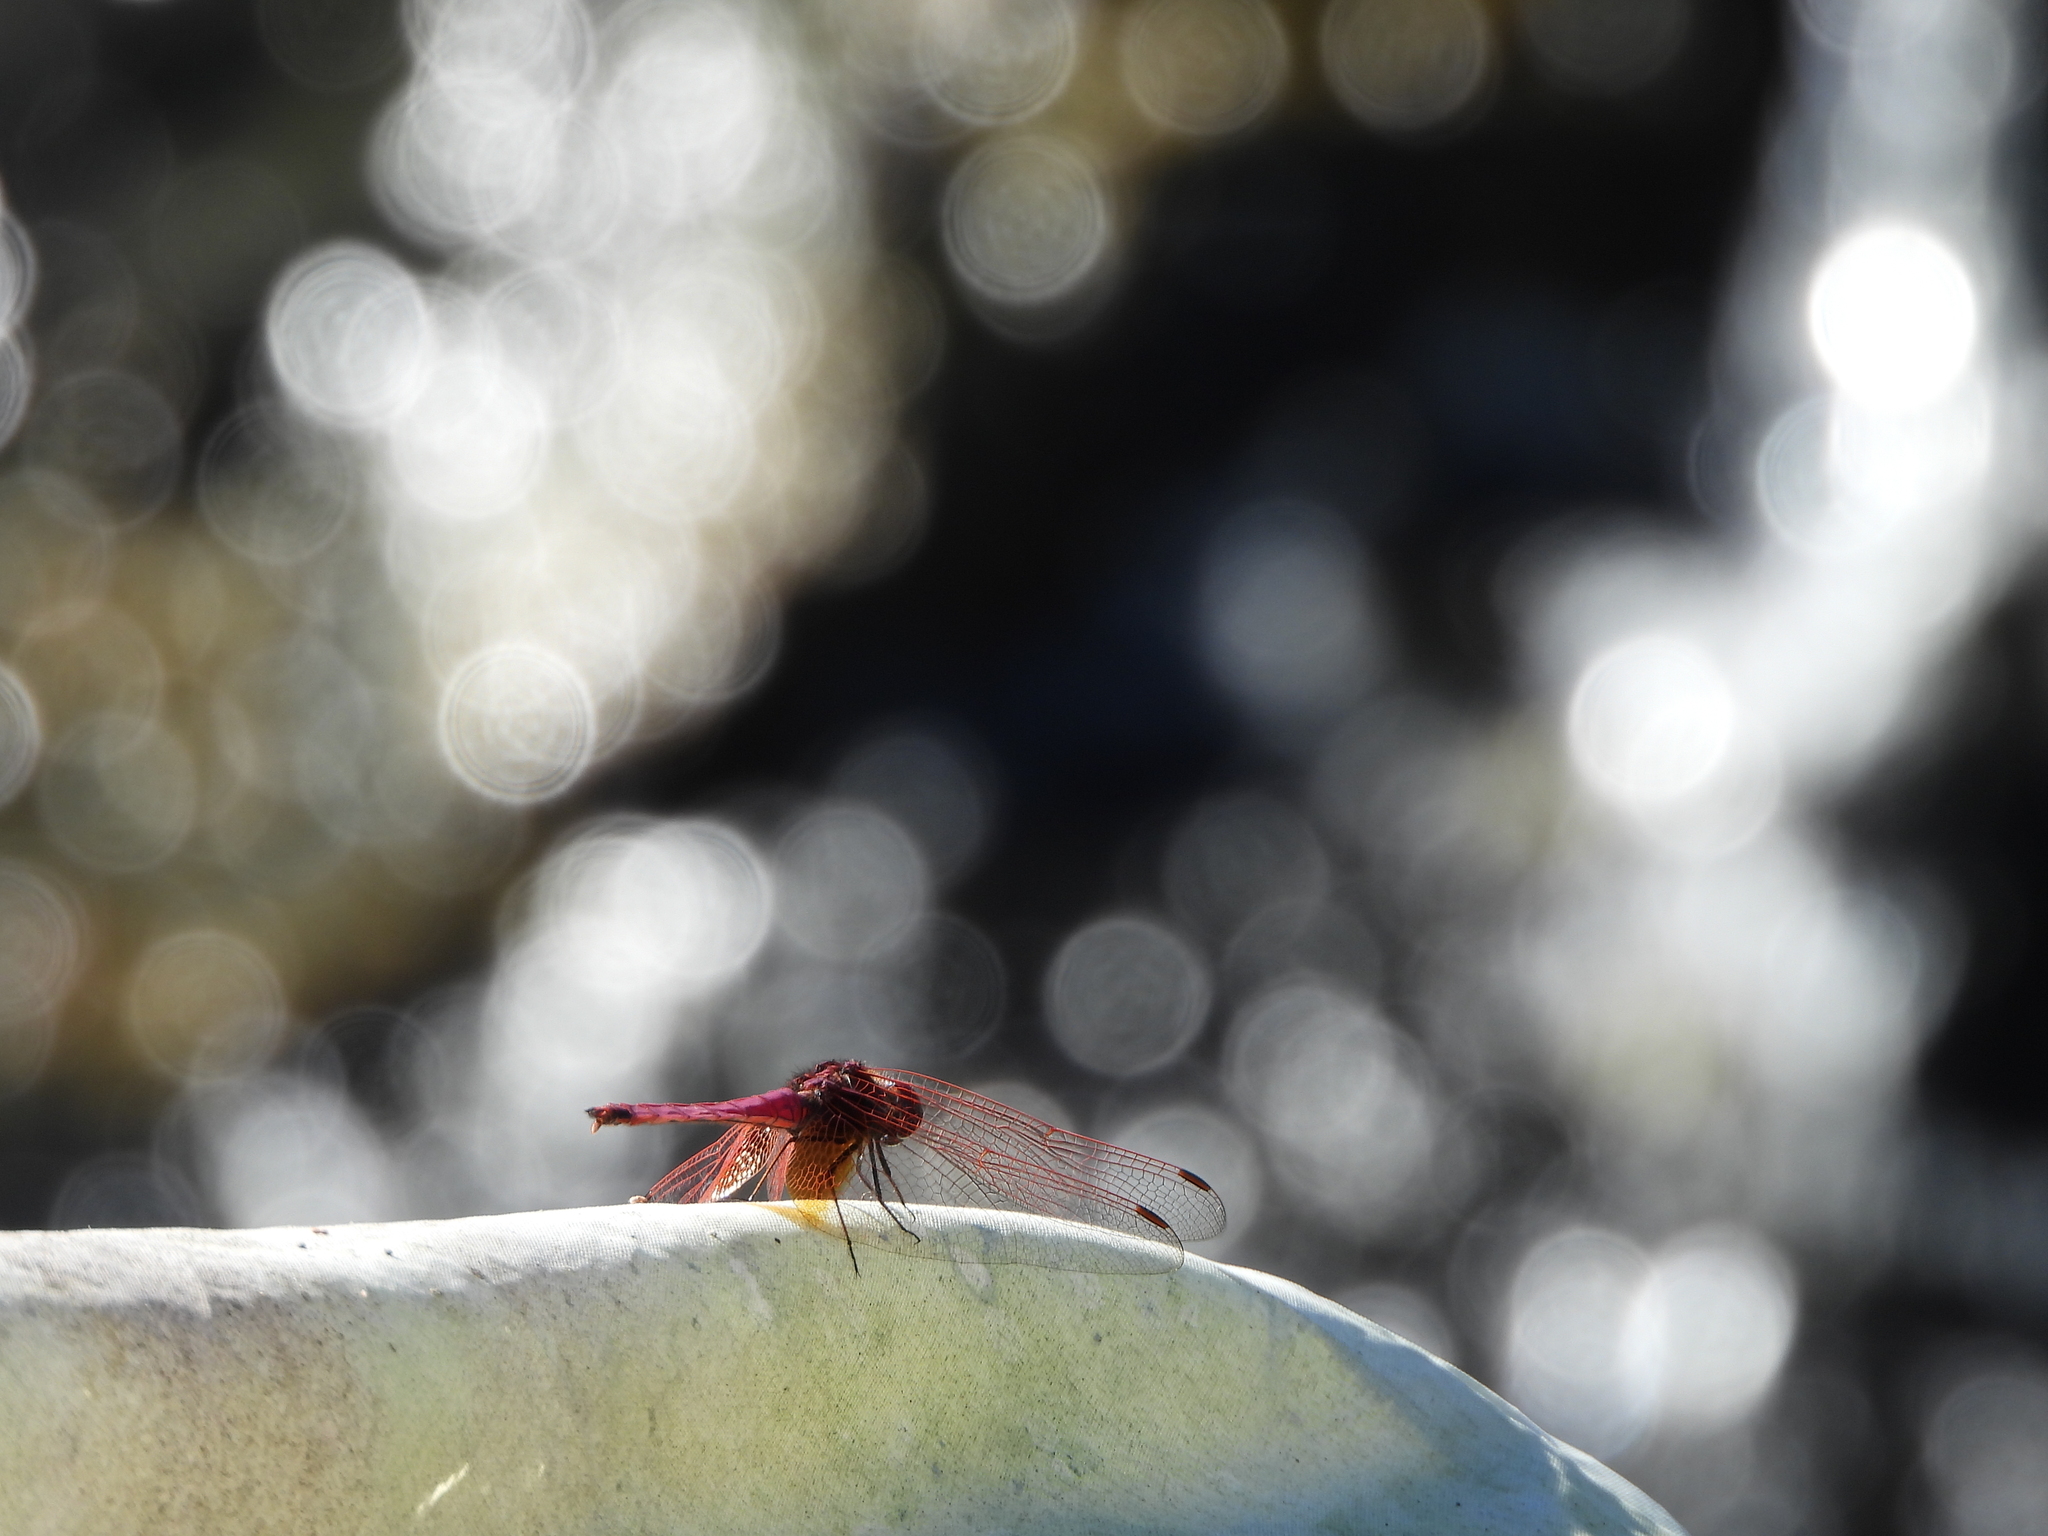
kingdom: Animalia
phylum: Arthropoda
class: Insecta
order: Odonata
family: Libellulidae
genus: Trithemis
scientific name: Trithemis aurora
